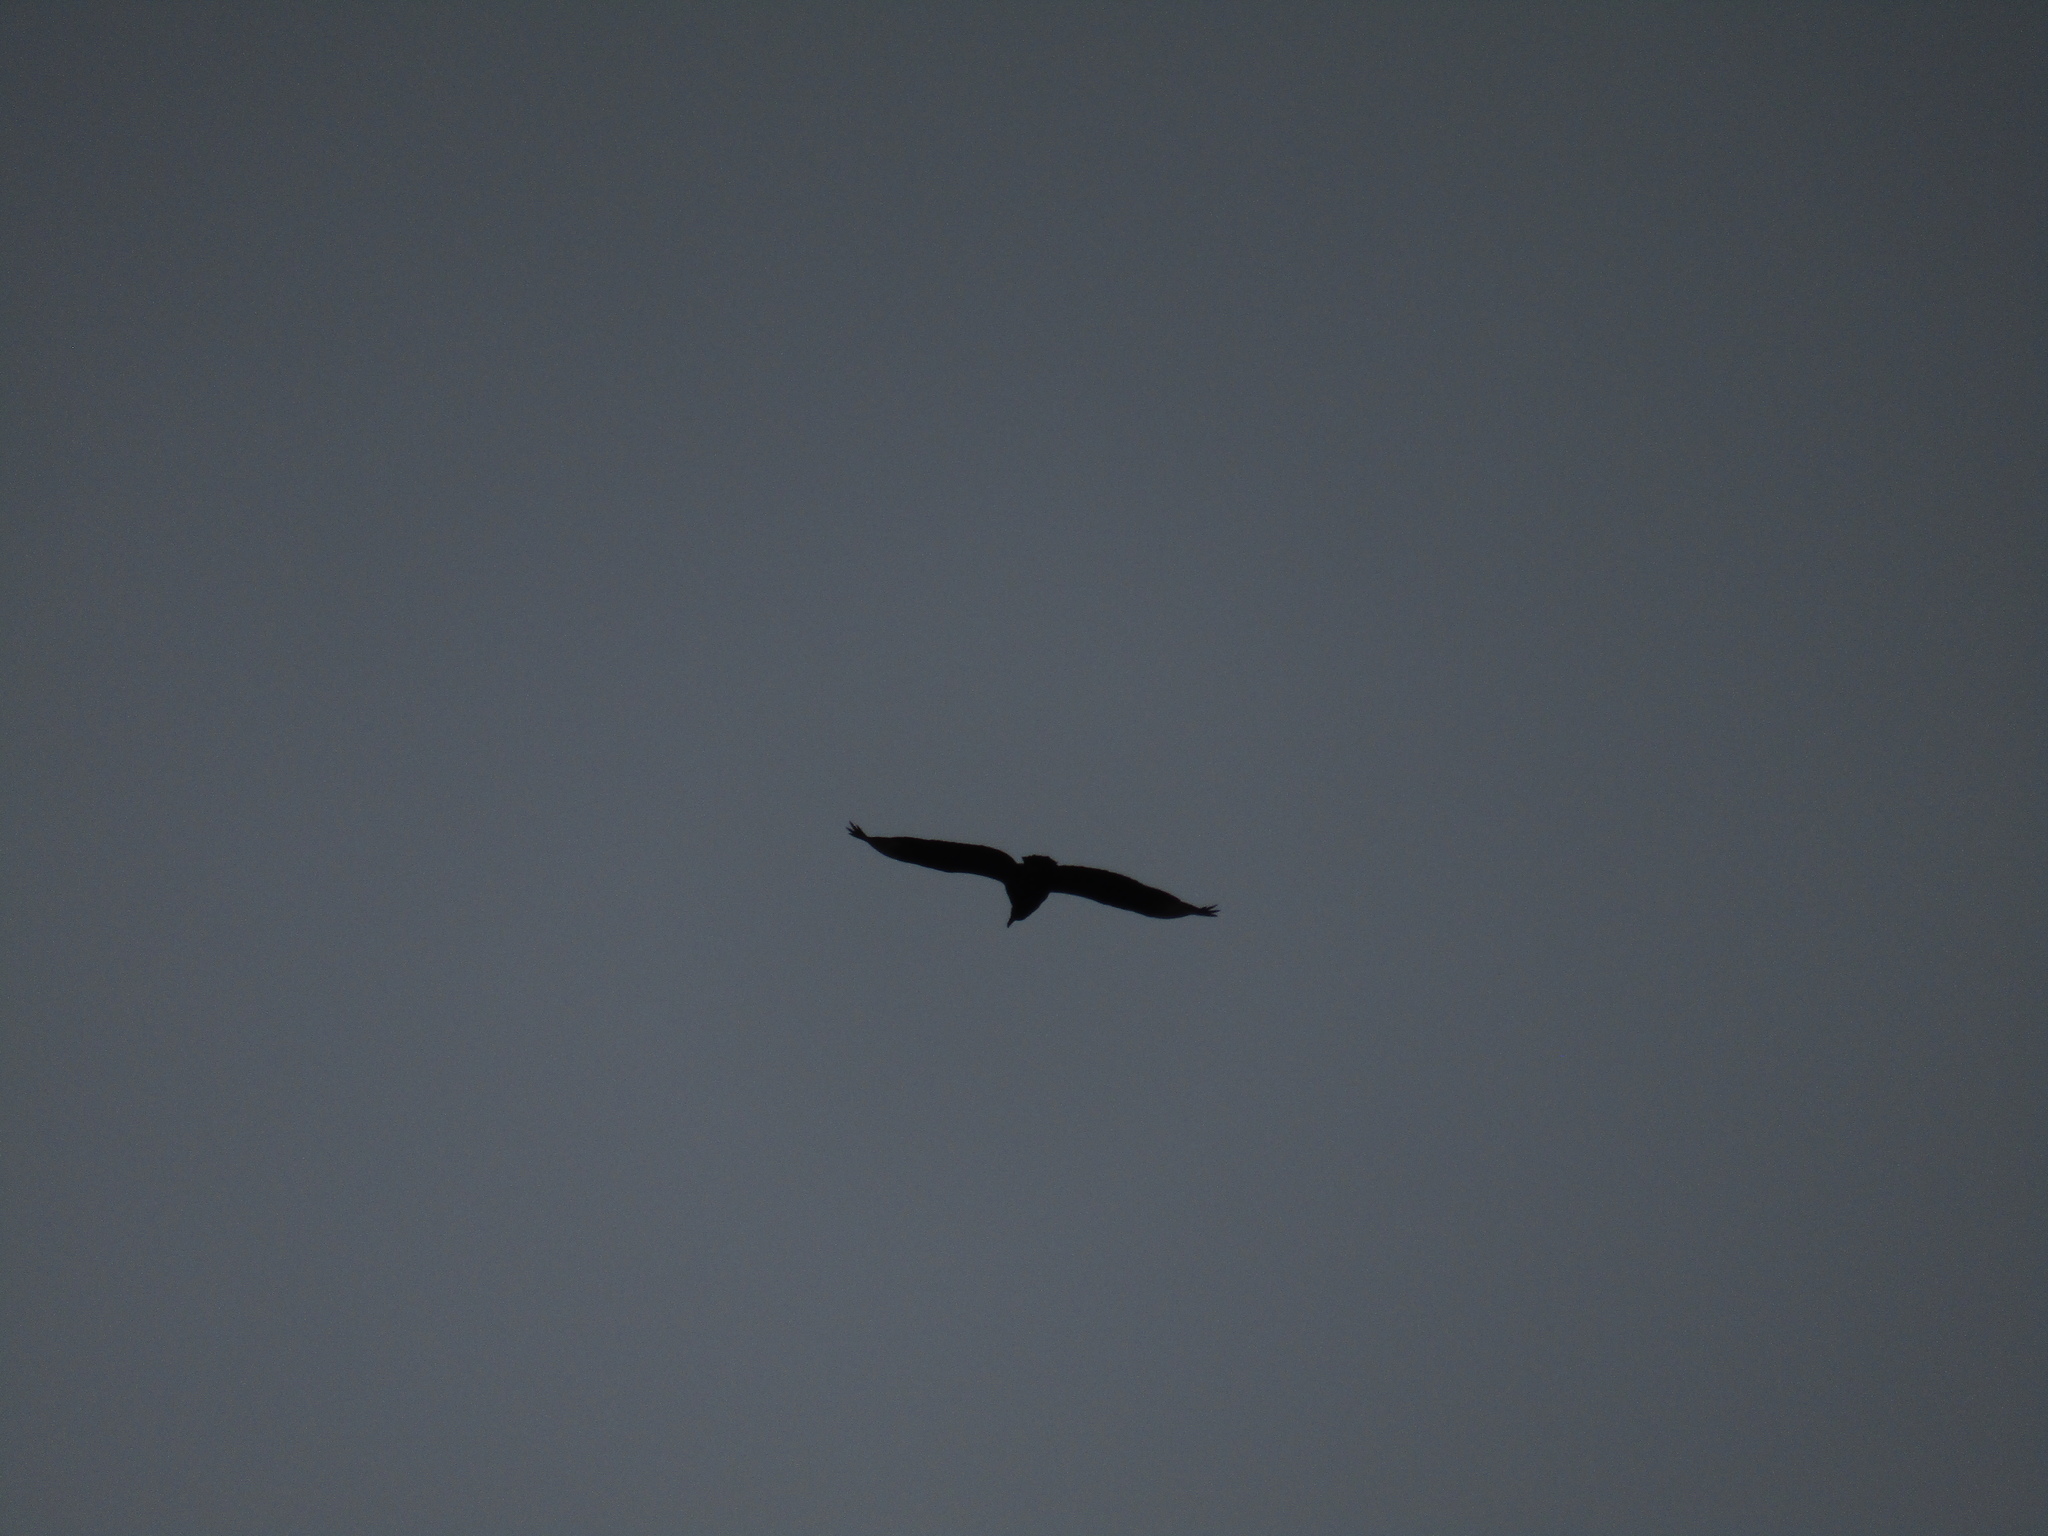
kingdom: Animalia
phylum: Chordata
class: Aves
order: Accipitriformes
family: Cathartidae
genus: Coragyps
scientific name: Coragyps atratus
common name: Black vulture
